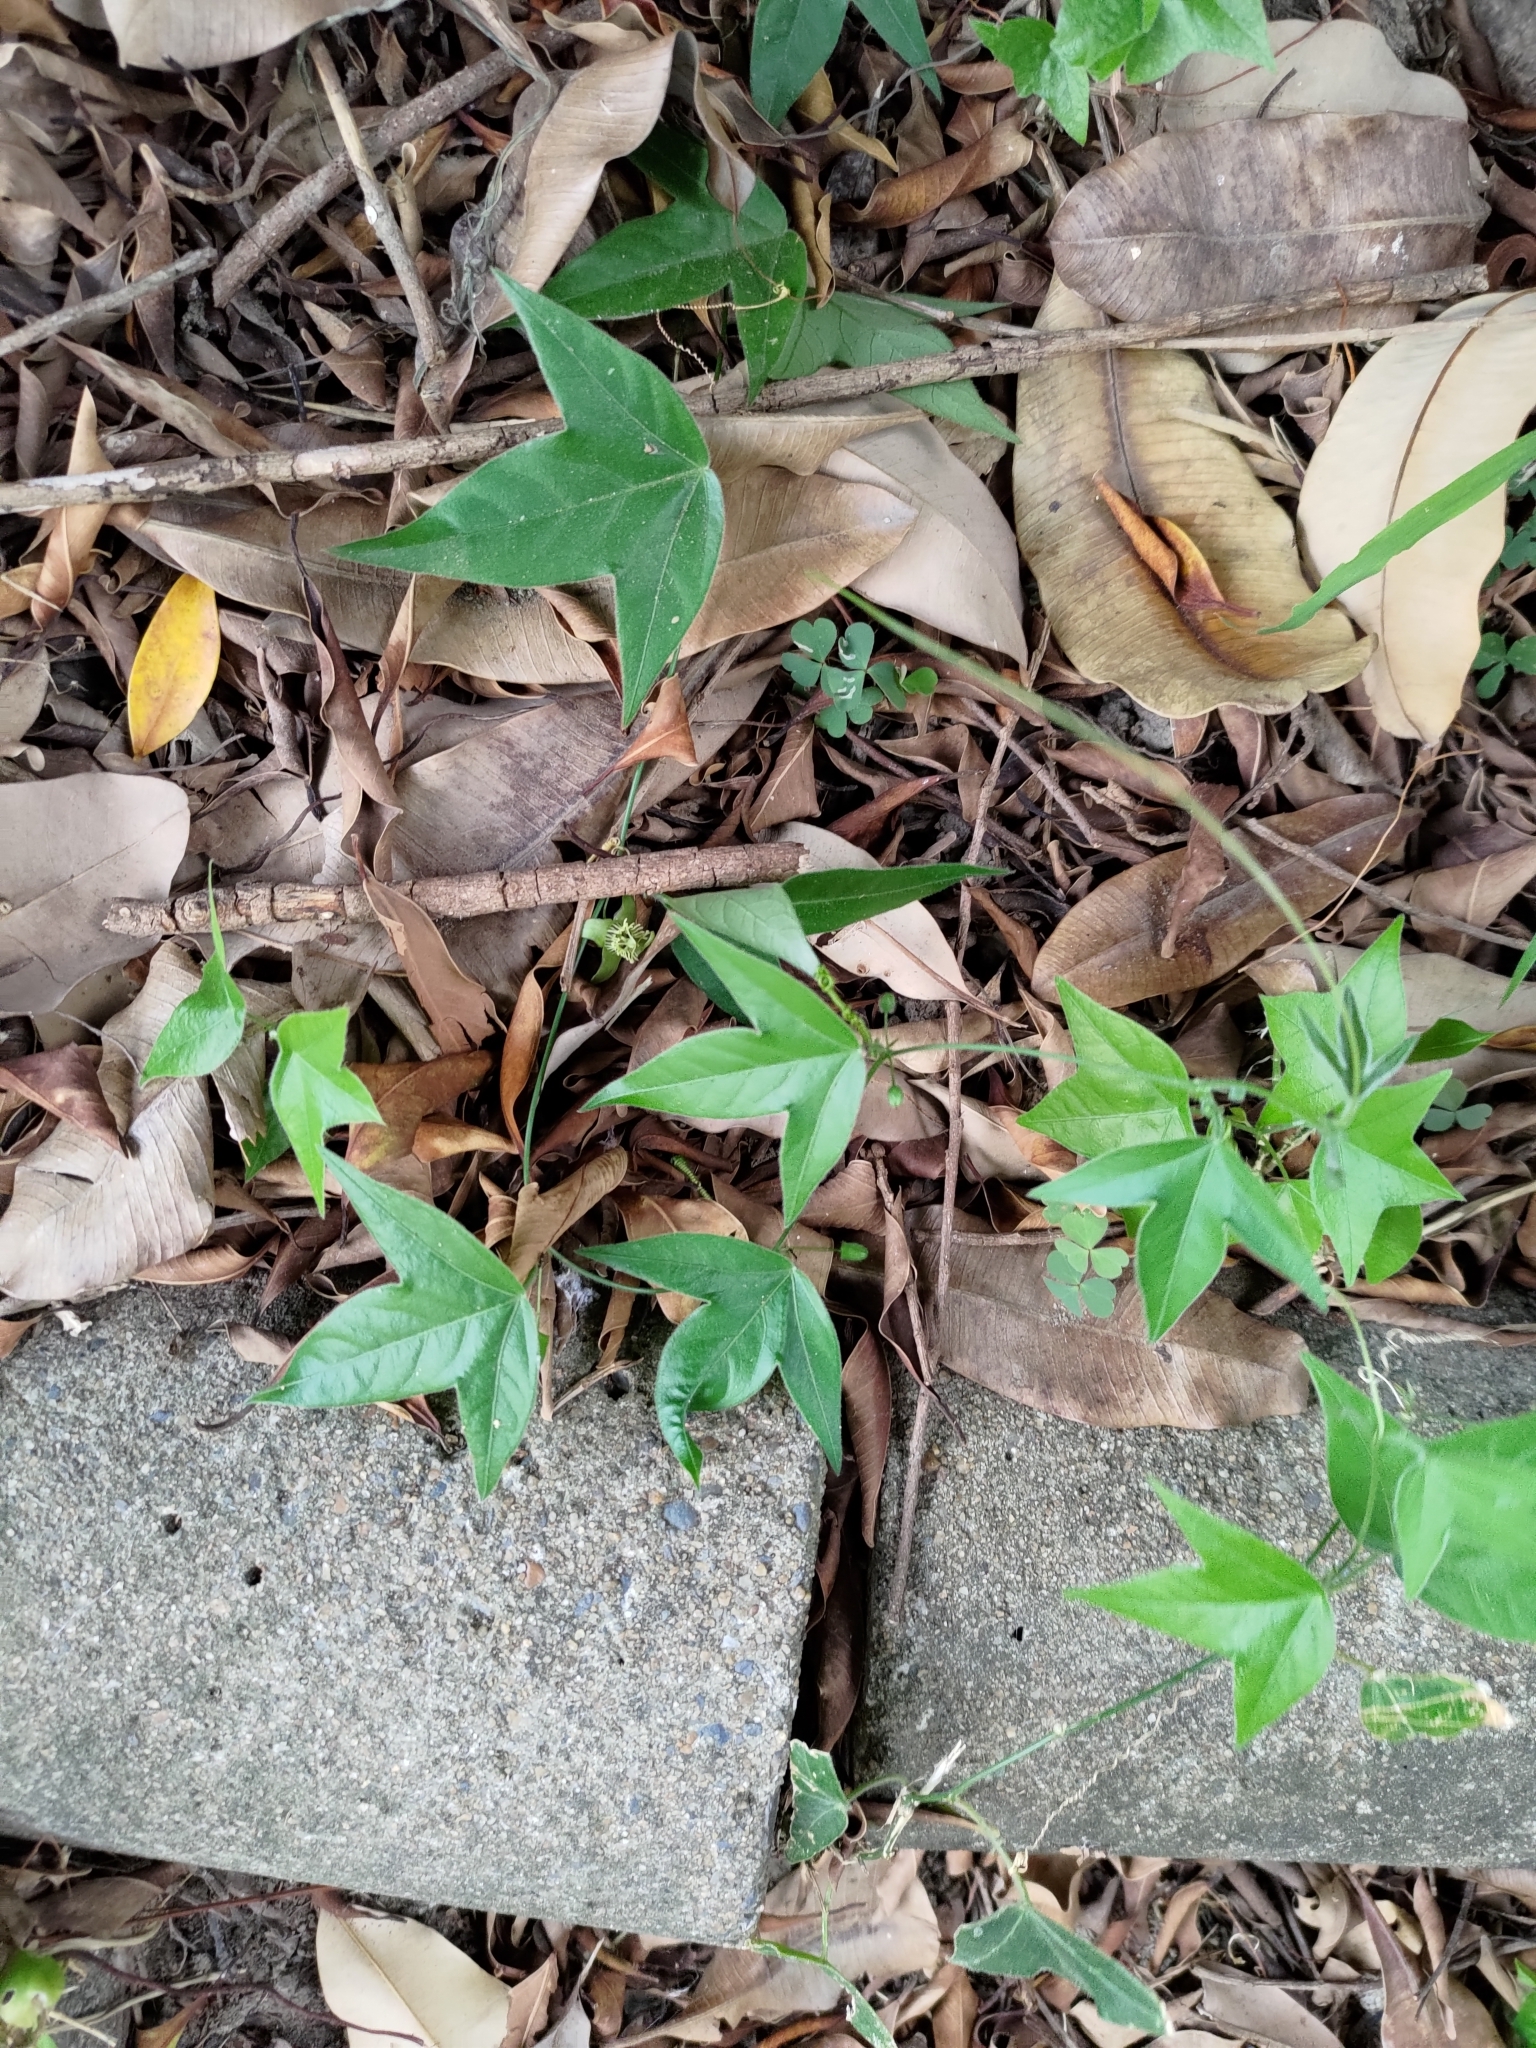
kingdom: Plantae
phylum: Tracheophyta
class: Magnoliopsida
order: Malpighiales
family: Passifloraceae
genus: Passiflora
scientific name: Passiflora suberosa
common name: Wild passionfruit
